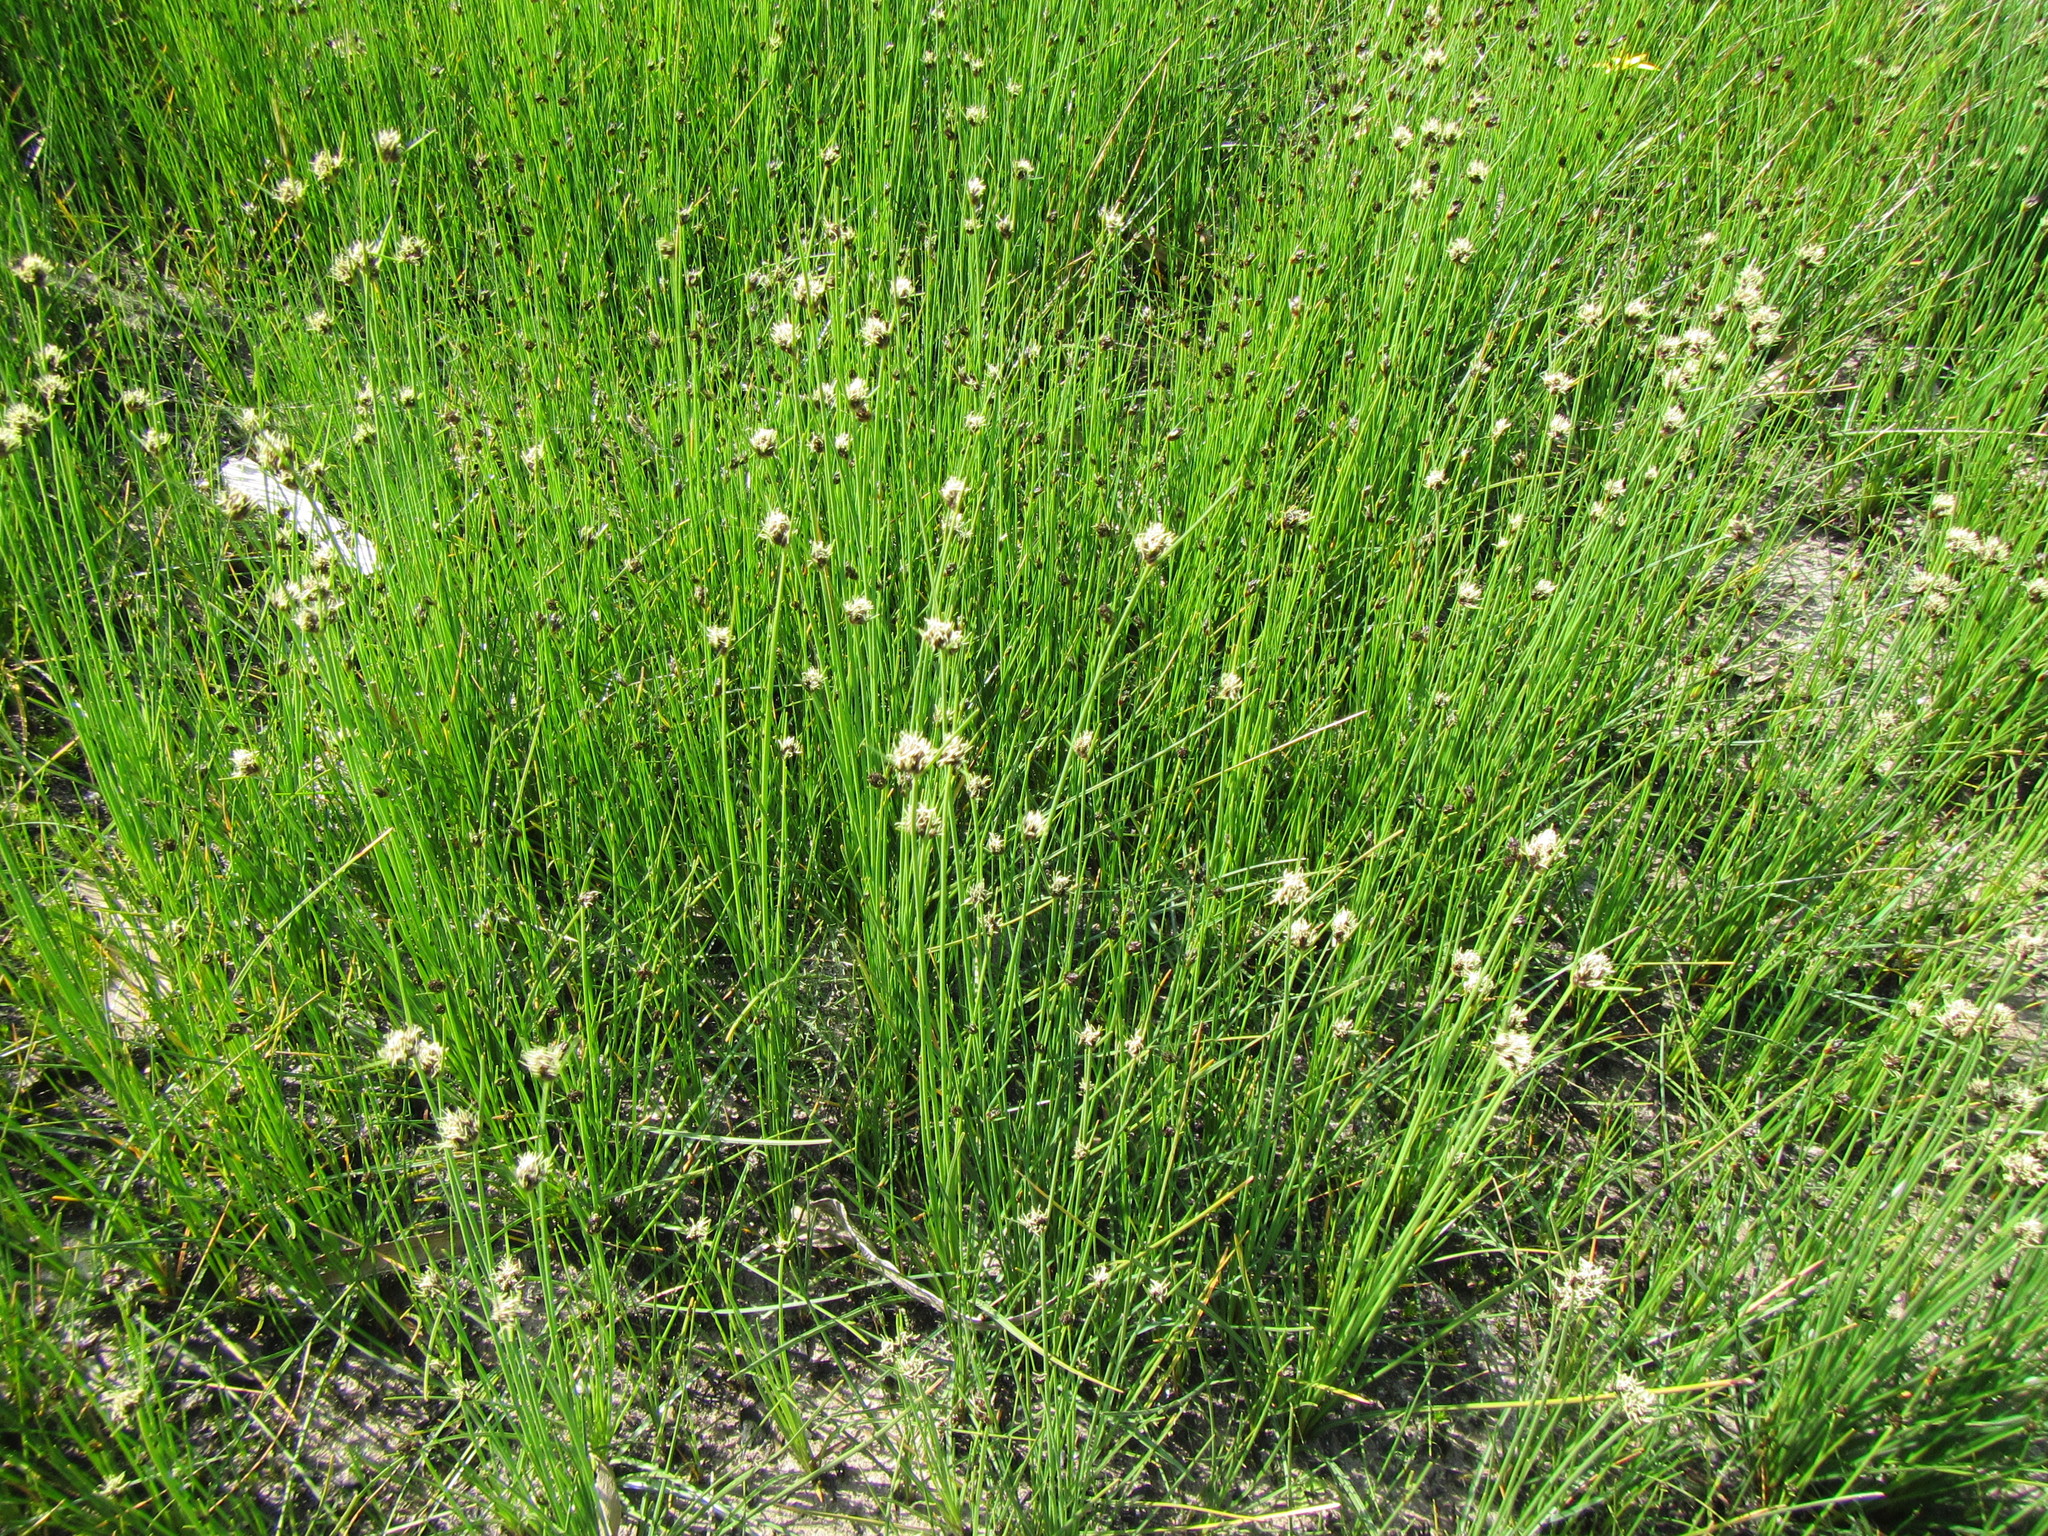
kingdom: Plantae
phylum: Tracheophyta
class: Liliopsida
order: Poales
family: Cyperaceae
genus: Ficinia
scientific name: Ficinia indica
